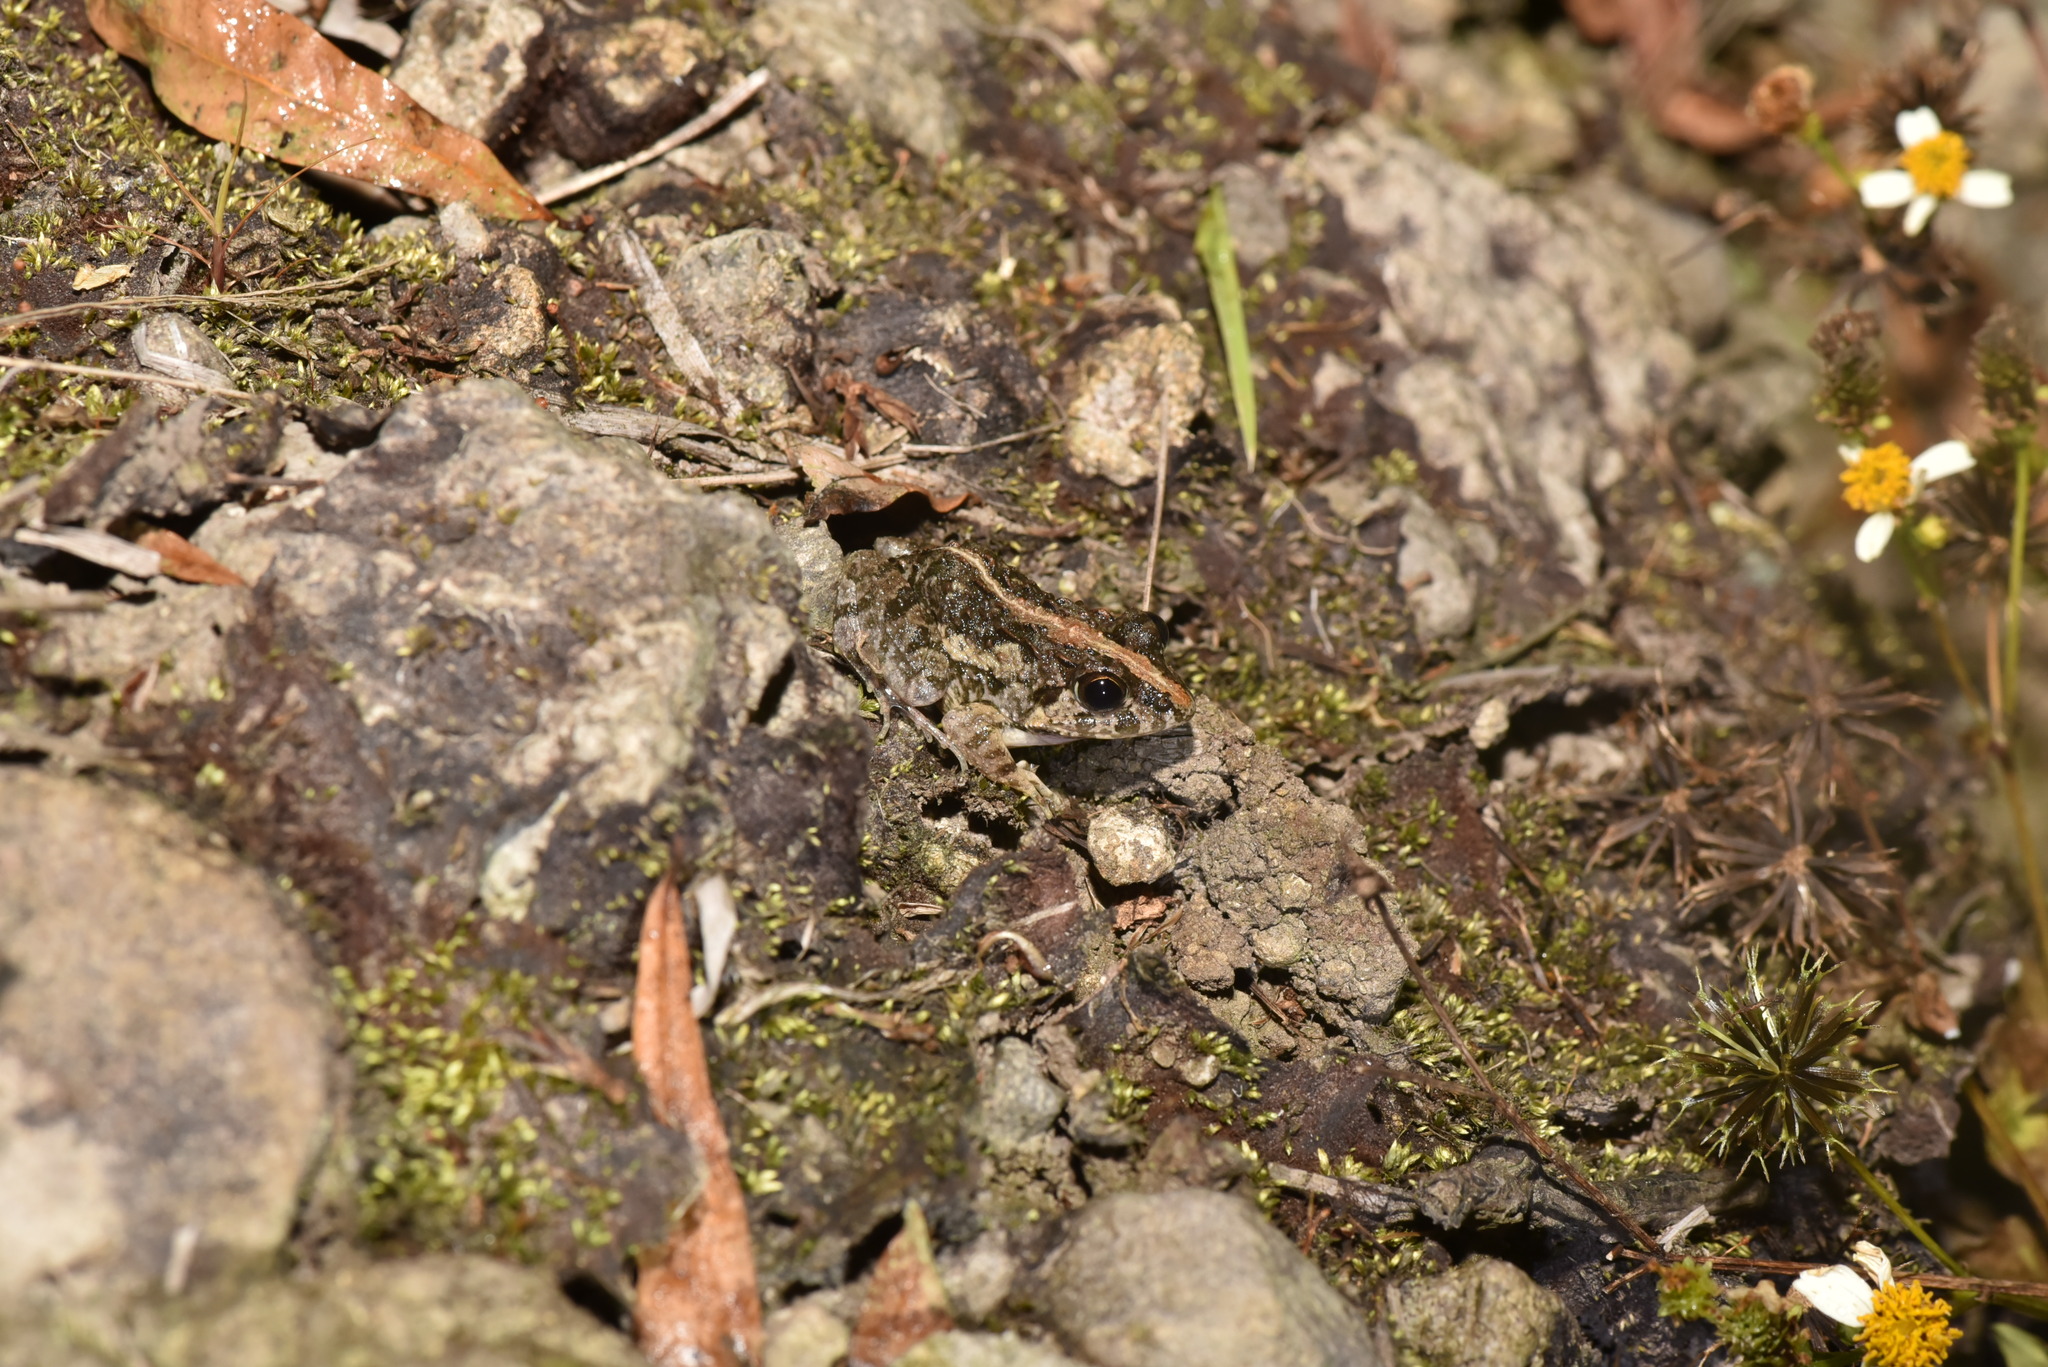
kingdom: Animalia
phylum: Chordata
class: Amphibia
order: Anura
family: Dicroglossidae
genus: Fejervarya
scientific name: Fejervarya limnocharis
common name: Asian grass frog/common pond frog/field frog/grass frog/indian rice frog
